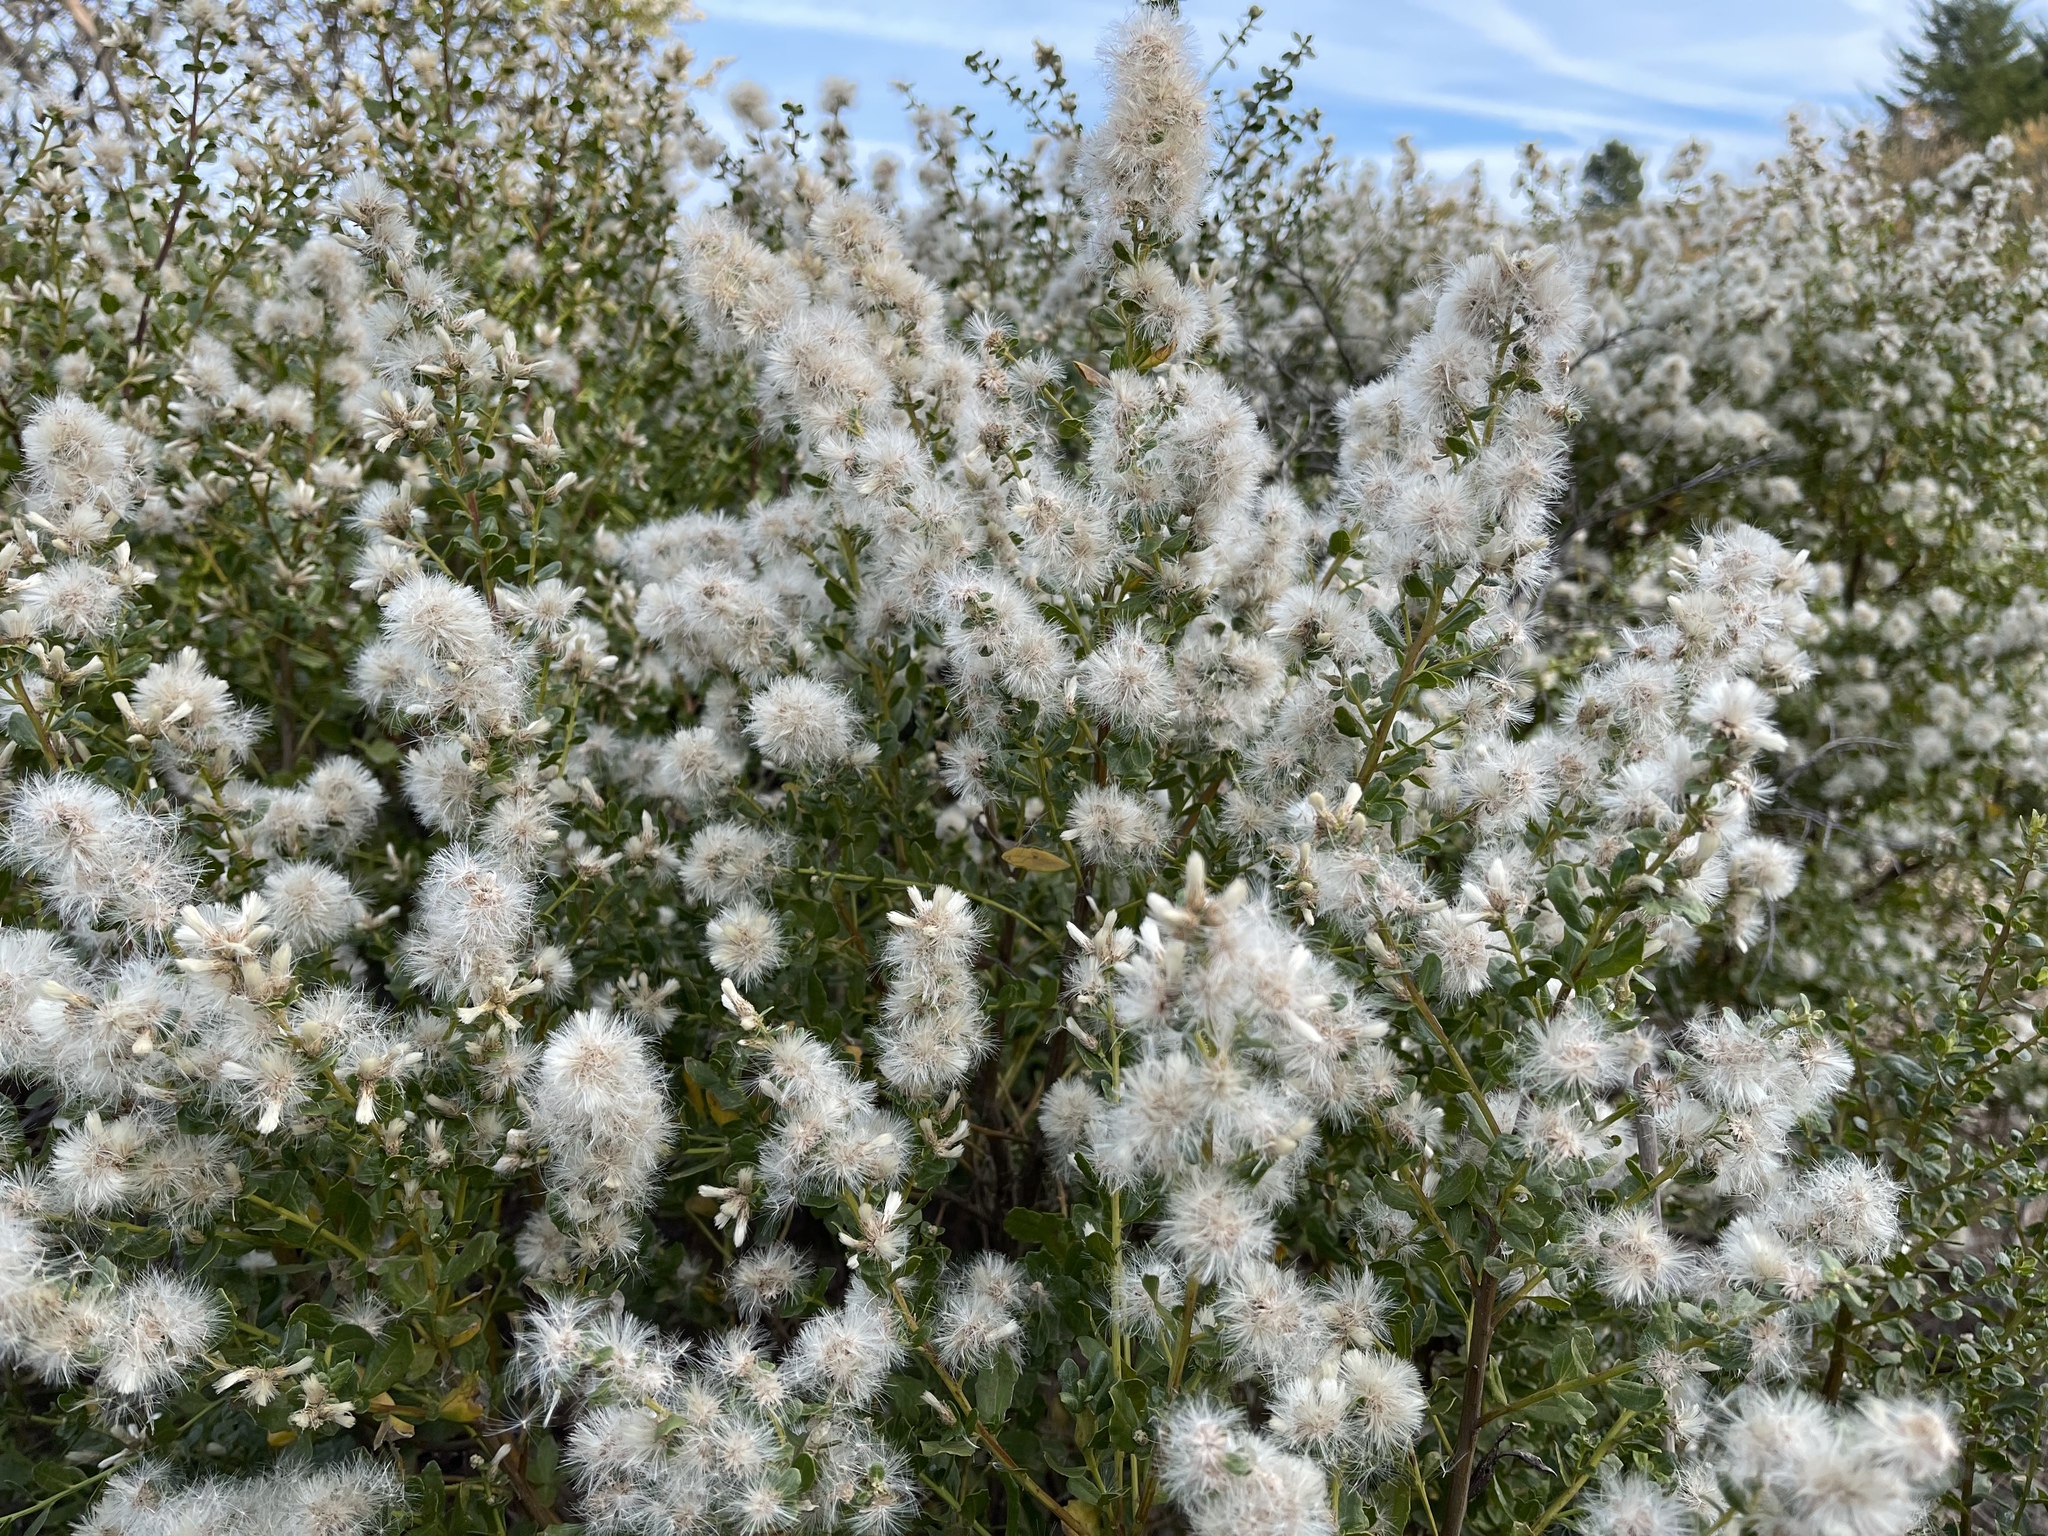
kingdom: Plantae
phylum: Tracheophyta
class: Magnoliopsida
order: Asterales
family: Asteraceae
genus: Baccharis
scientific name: Baccharis pilularis
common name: Coyotebrush
